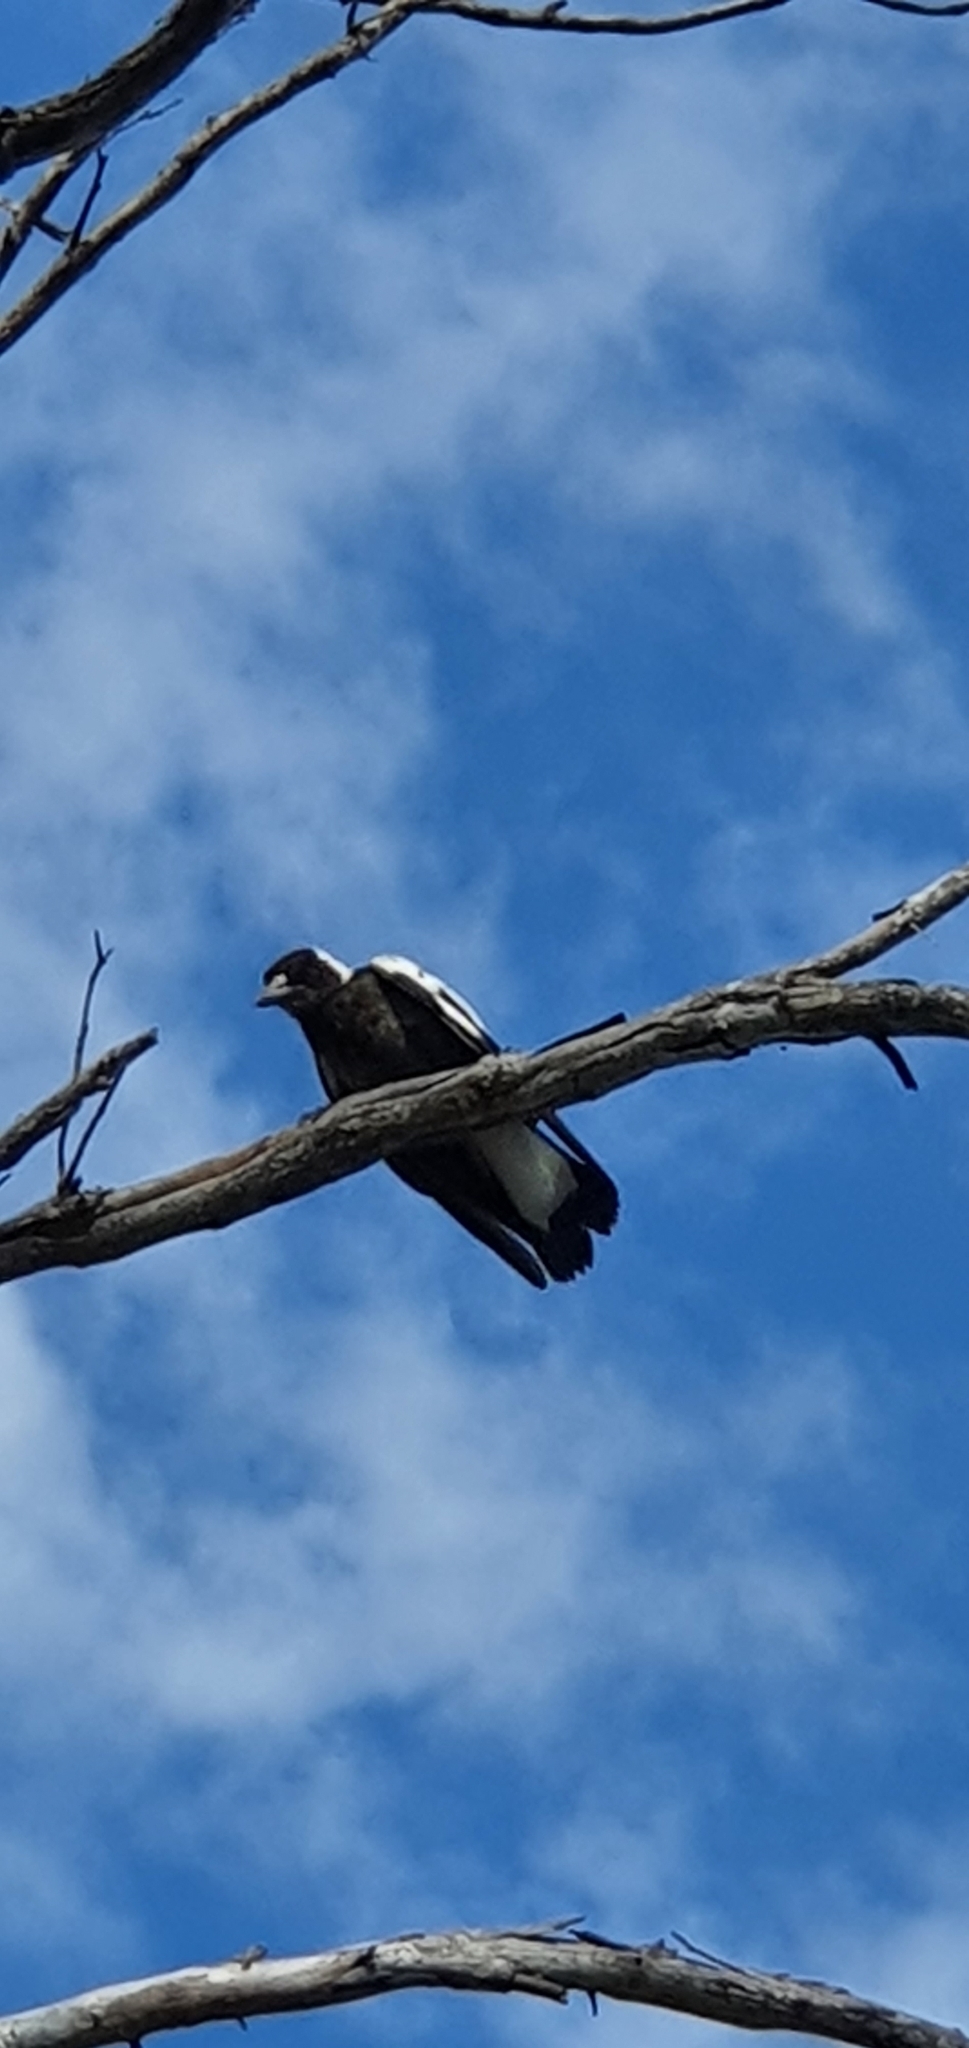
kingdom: Animalia
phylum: Chordata
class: Aves
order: Passeriformes
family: Cracticidae
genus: Gymnorhina
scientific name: Gymnorhina tibicen
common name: Australian magpie
